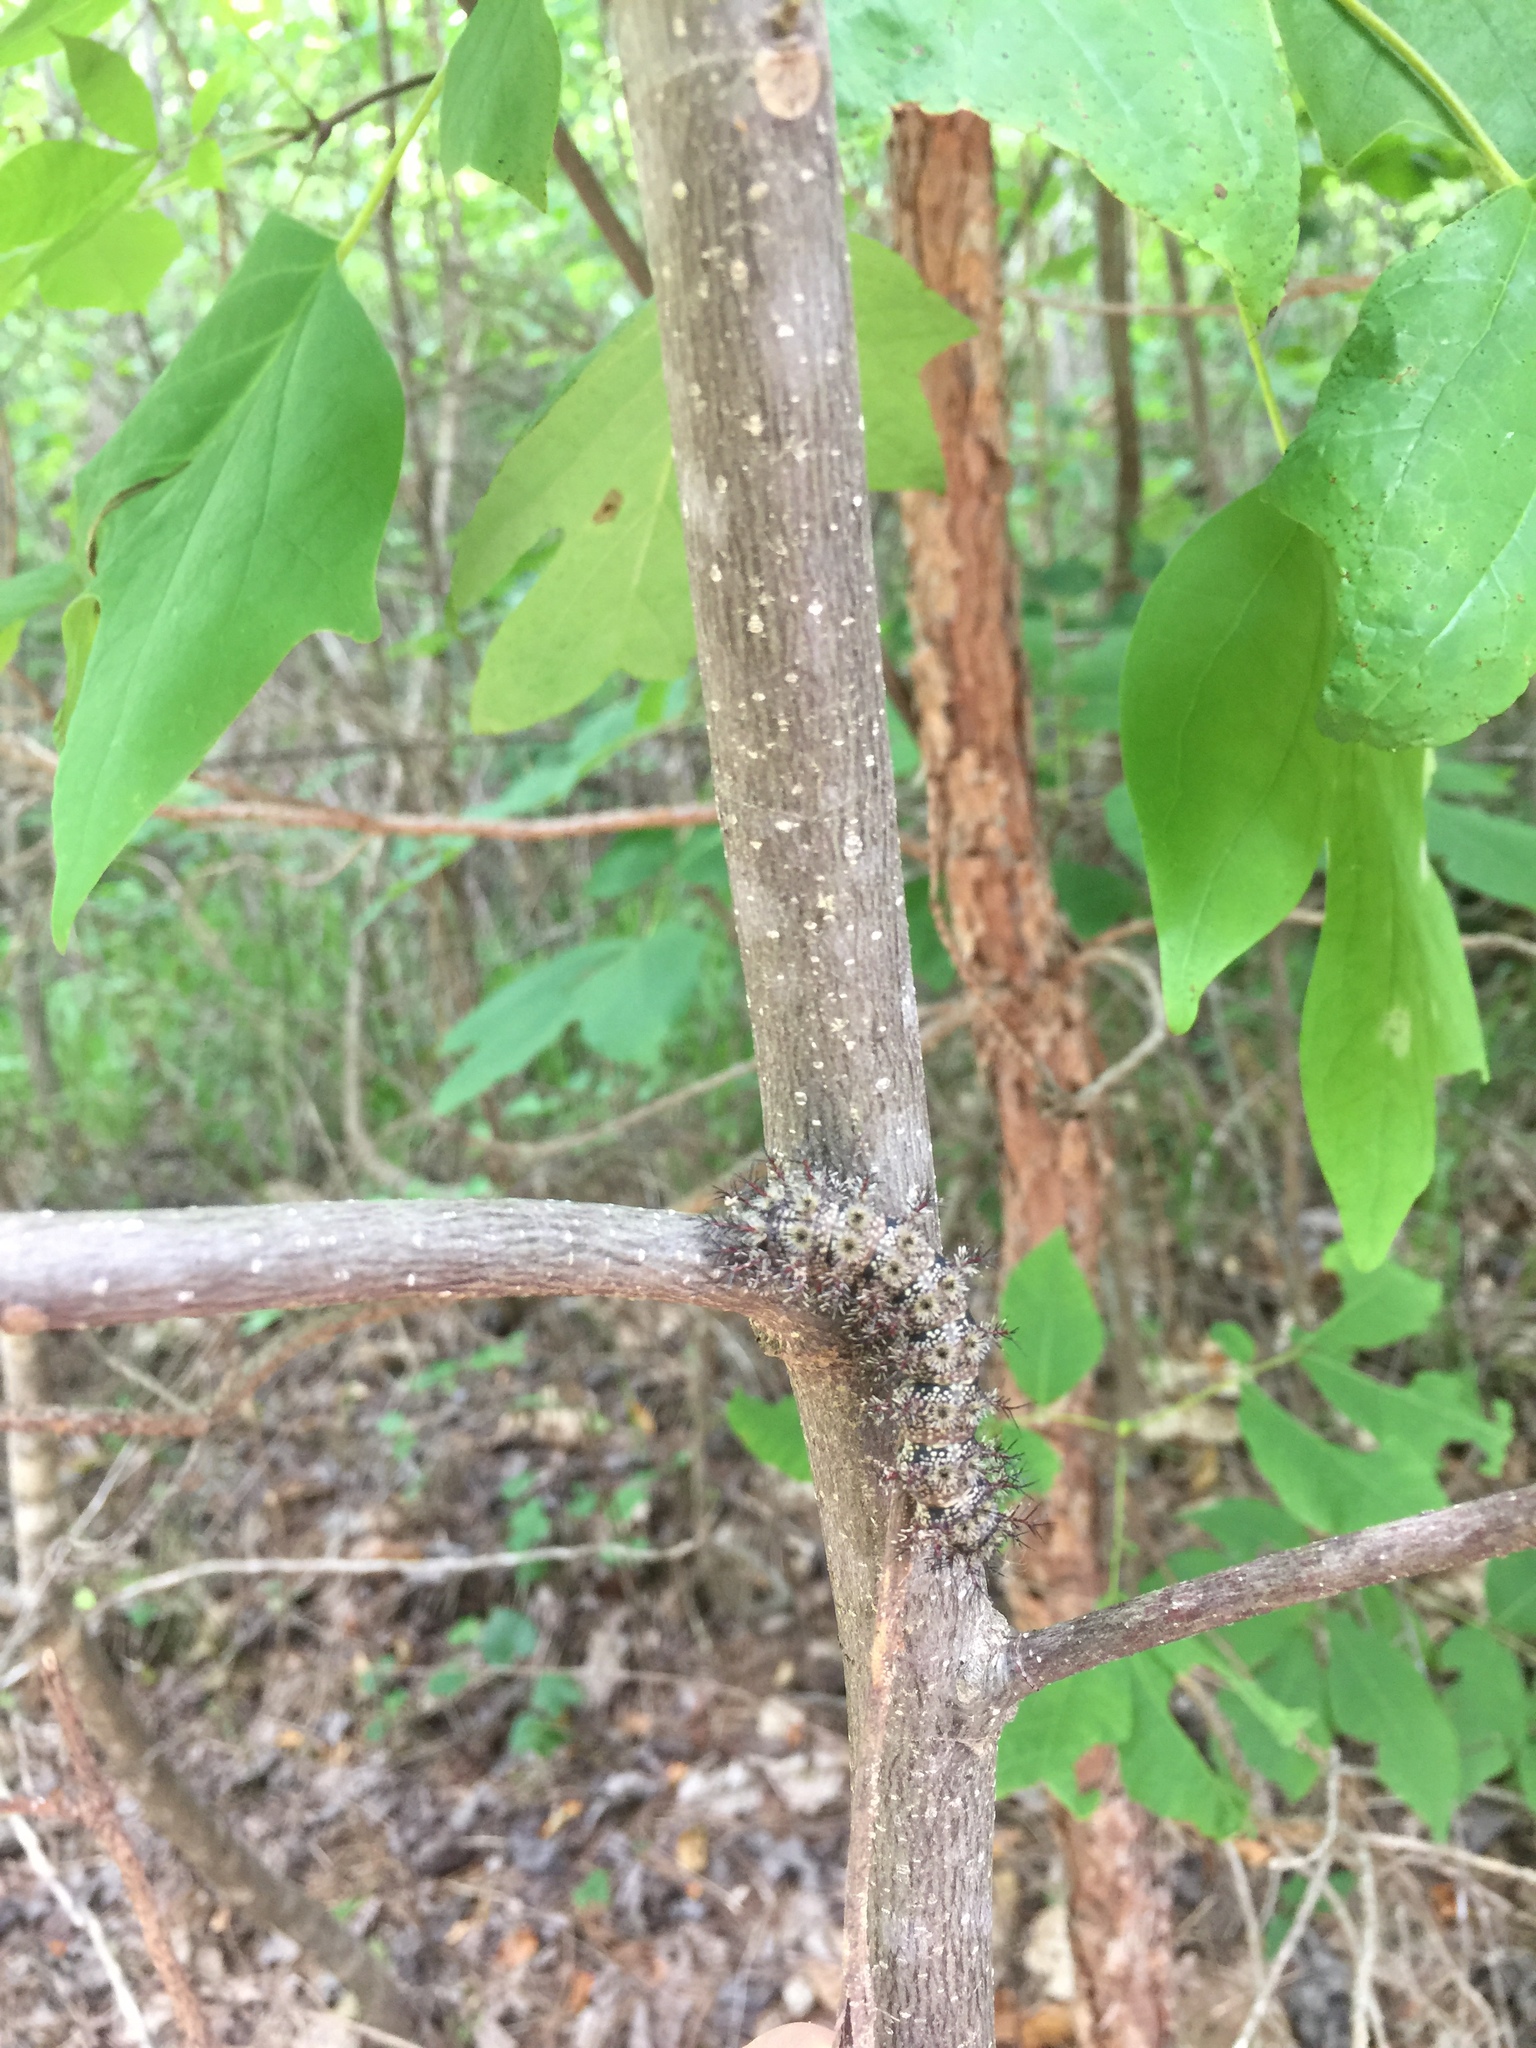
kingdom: Animalia
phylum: Arthropoda
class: Insecta
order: Lepidoptera
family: Saturniidae
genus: Hemileuca
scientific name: Hemileuca maia
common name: Eastern buckmoth
